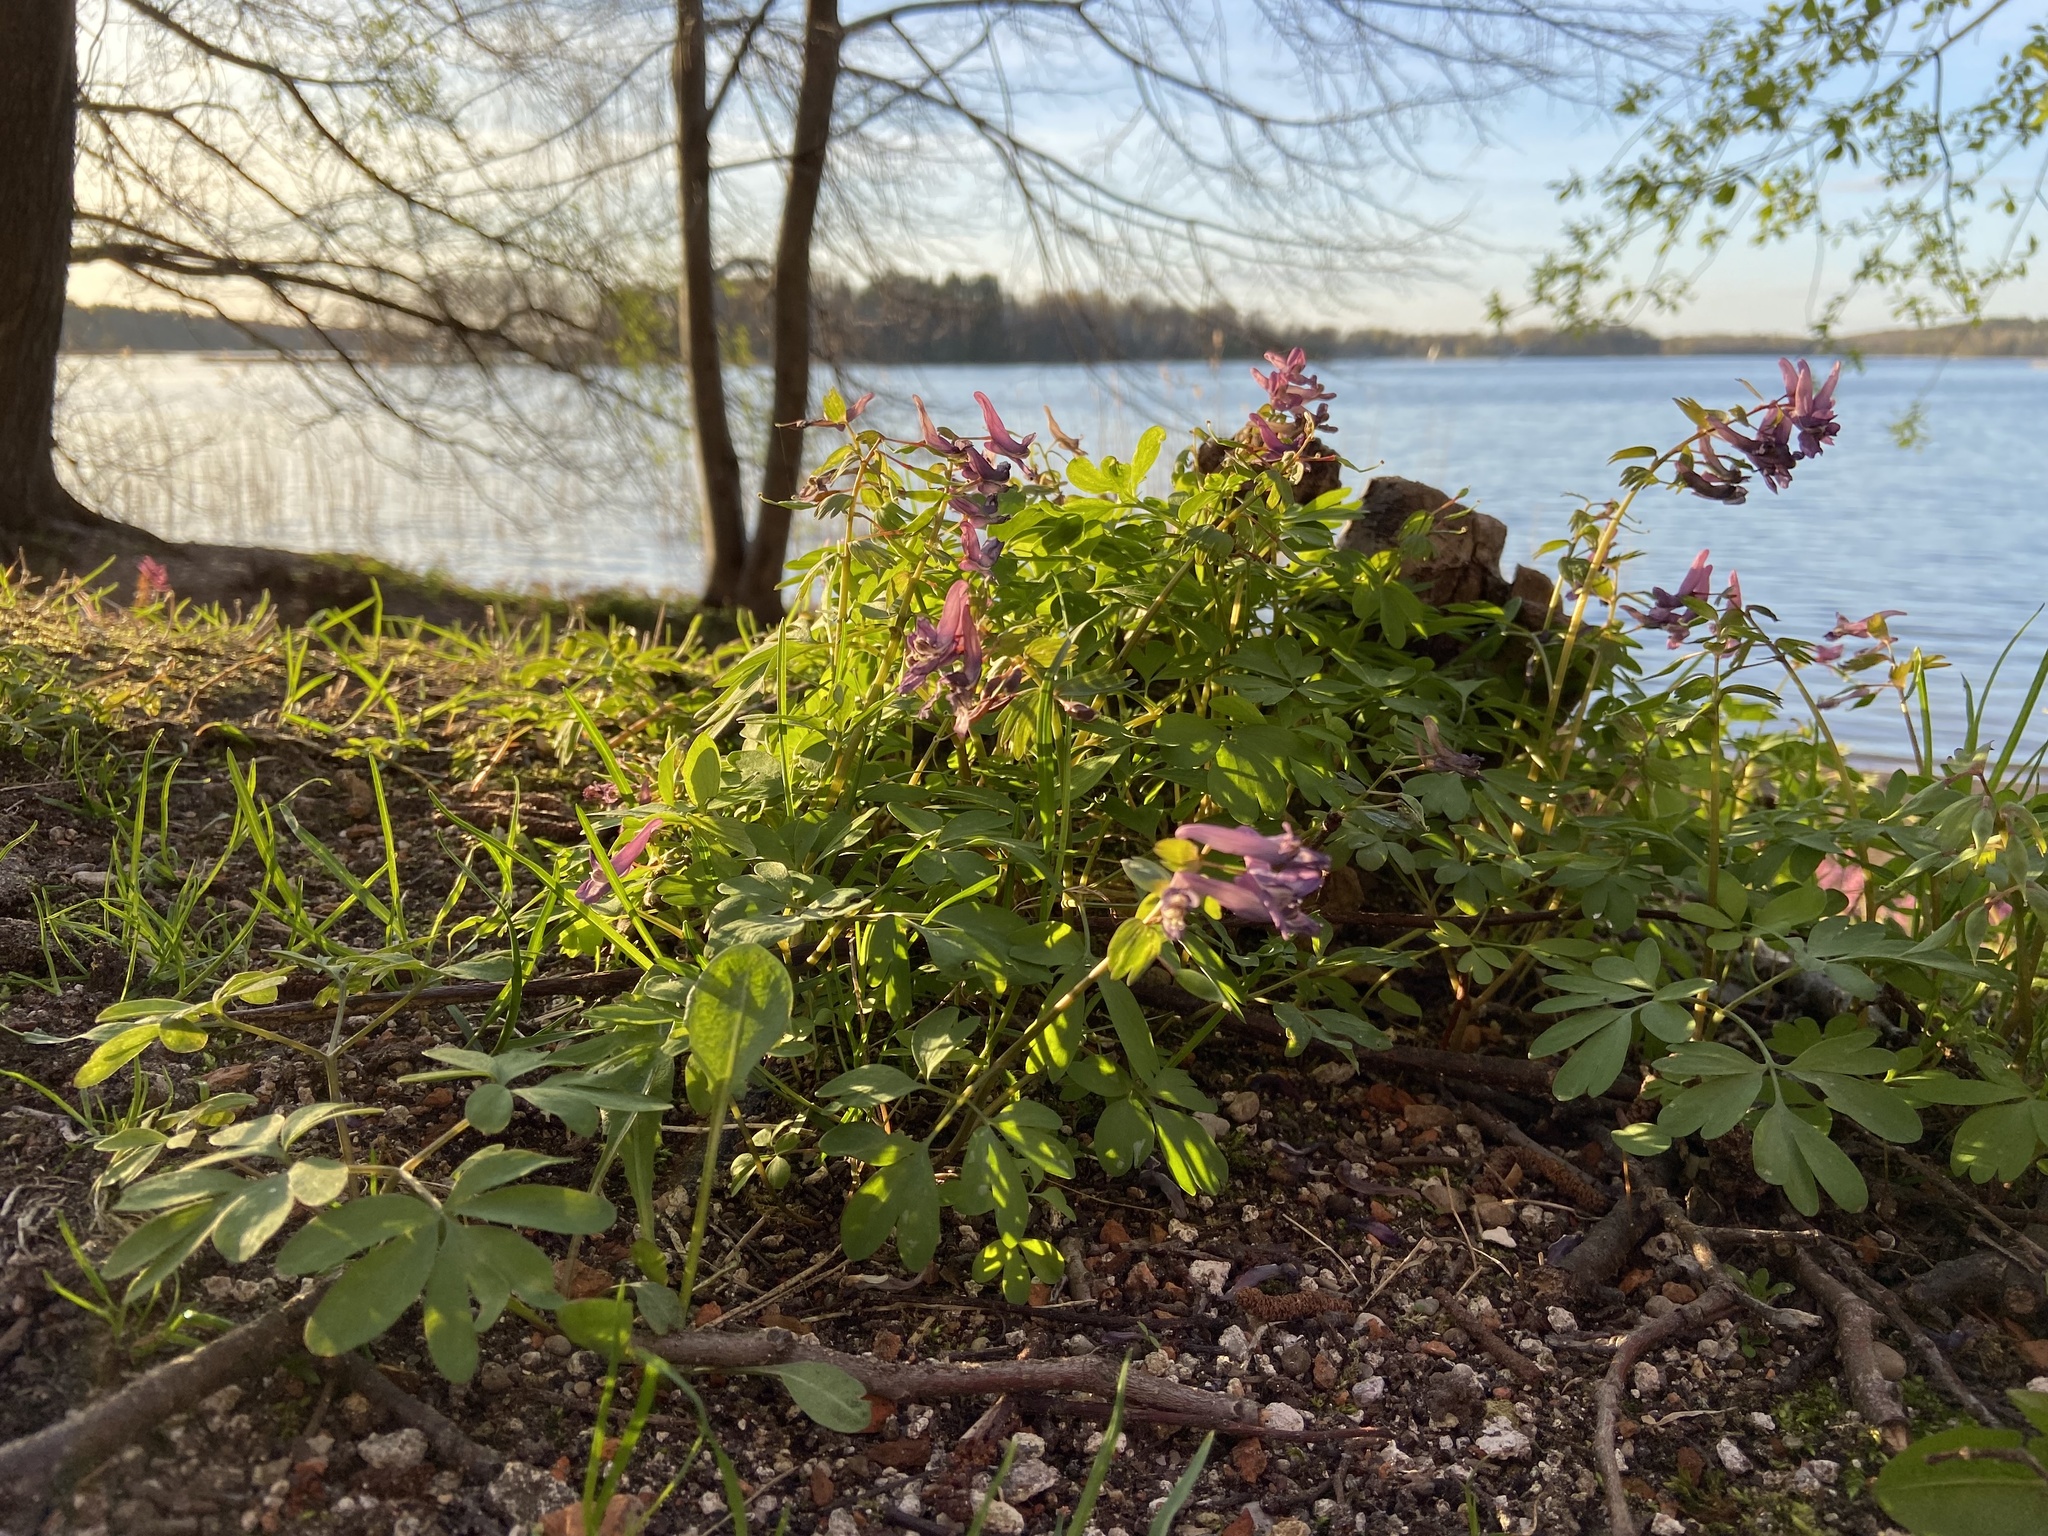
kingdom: Plantae
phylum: Tracheophyta
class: Magnoliopsida
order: Ranunculales
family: Papaveraceae
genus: Corydalis
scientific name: Corydalis solida
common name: Bird-in-a-bush
